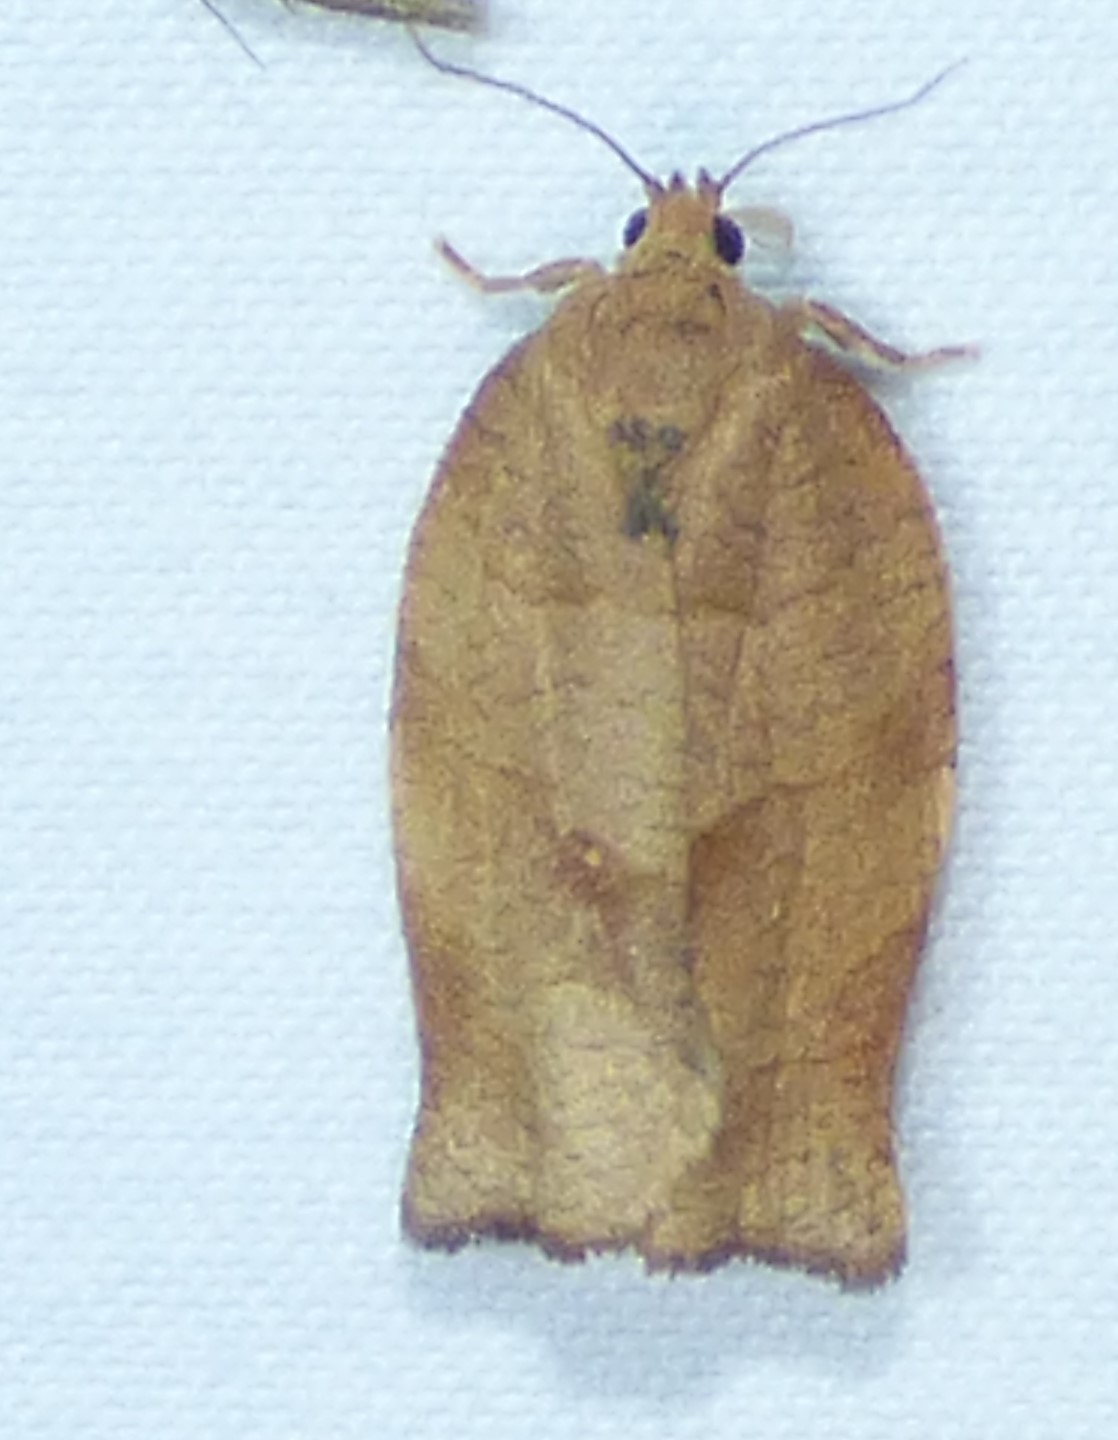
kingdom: Animalia
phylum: Arthropoda
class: Insecta
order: Lepidoptera
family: Tortricidae
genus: Choristoneura
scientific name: Choristoneura rosaceana
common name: Oblique-banded leafroller moth
